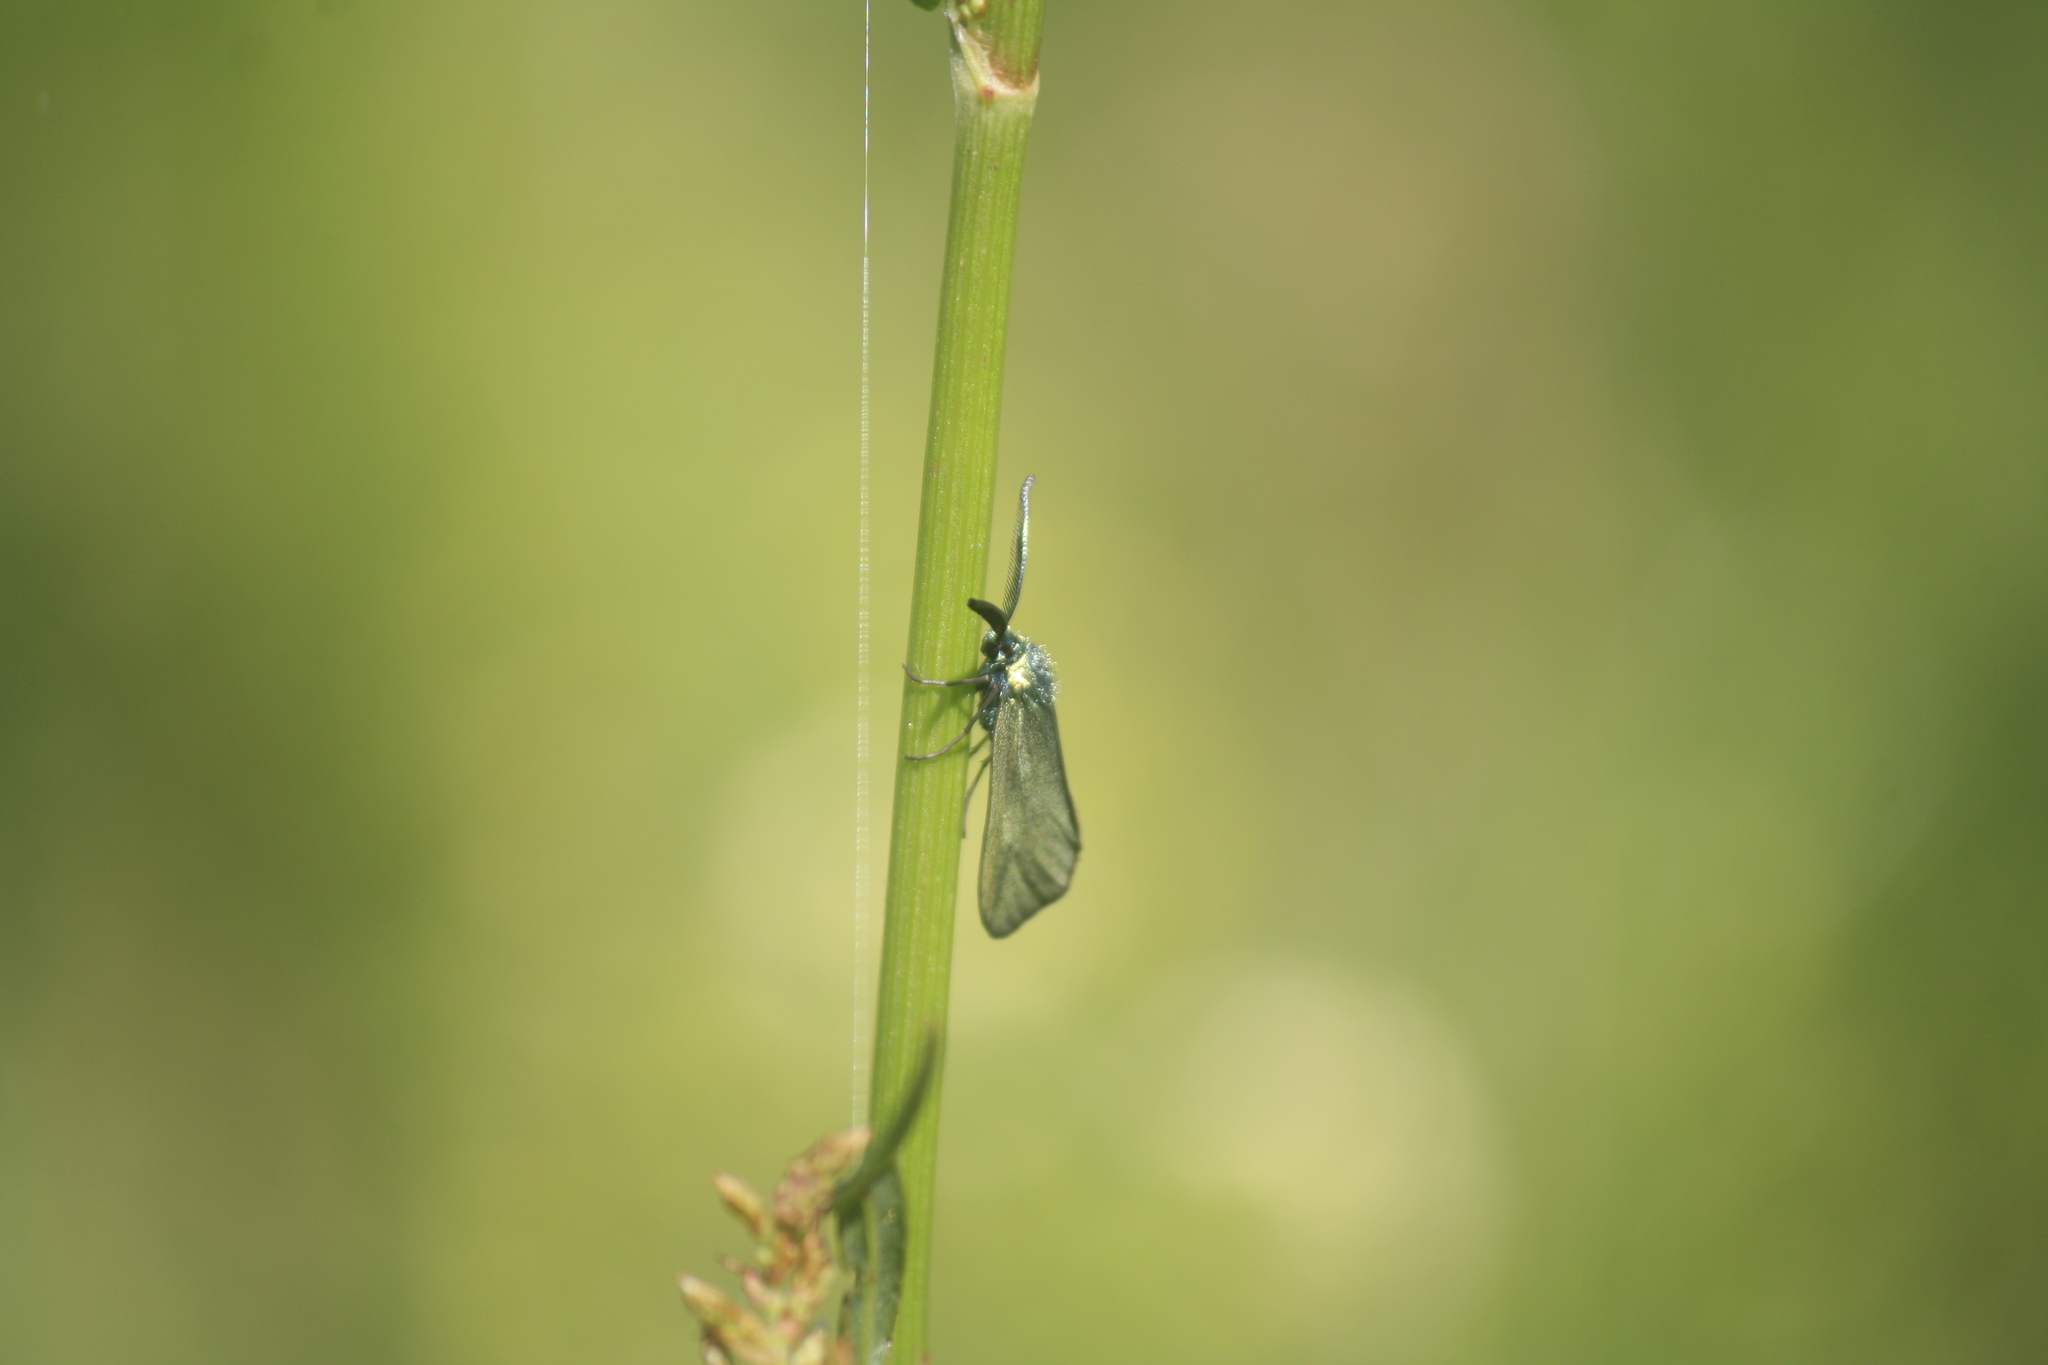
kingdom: Animalia
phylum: Arthropoda
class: Insecta
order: Lepidoptera
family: Zygaenidae
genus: Adscita
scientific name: Adscita statices
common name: Forester
